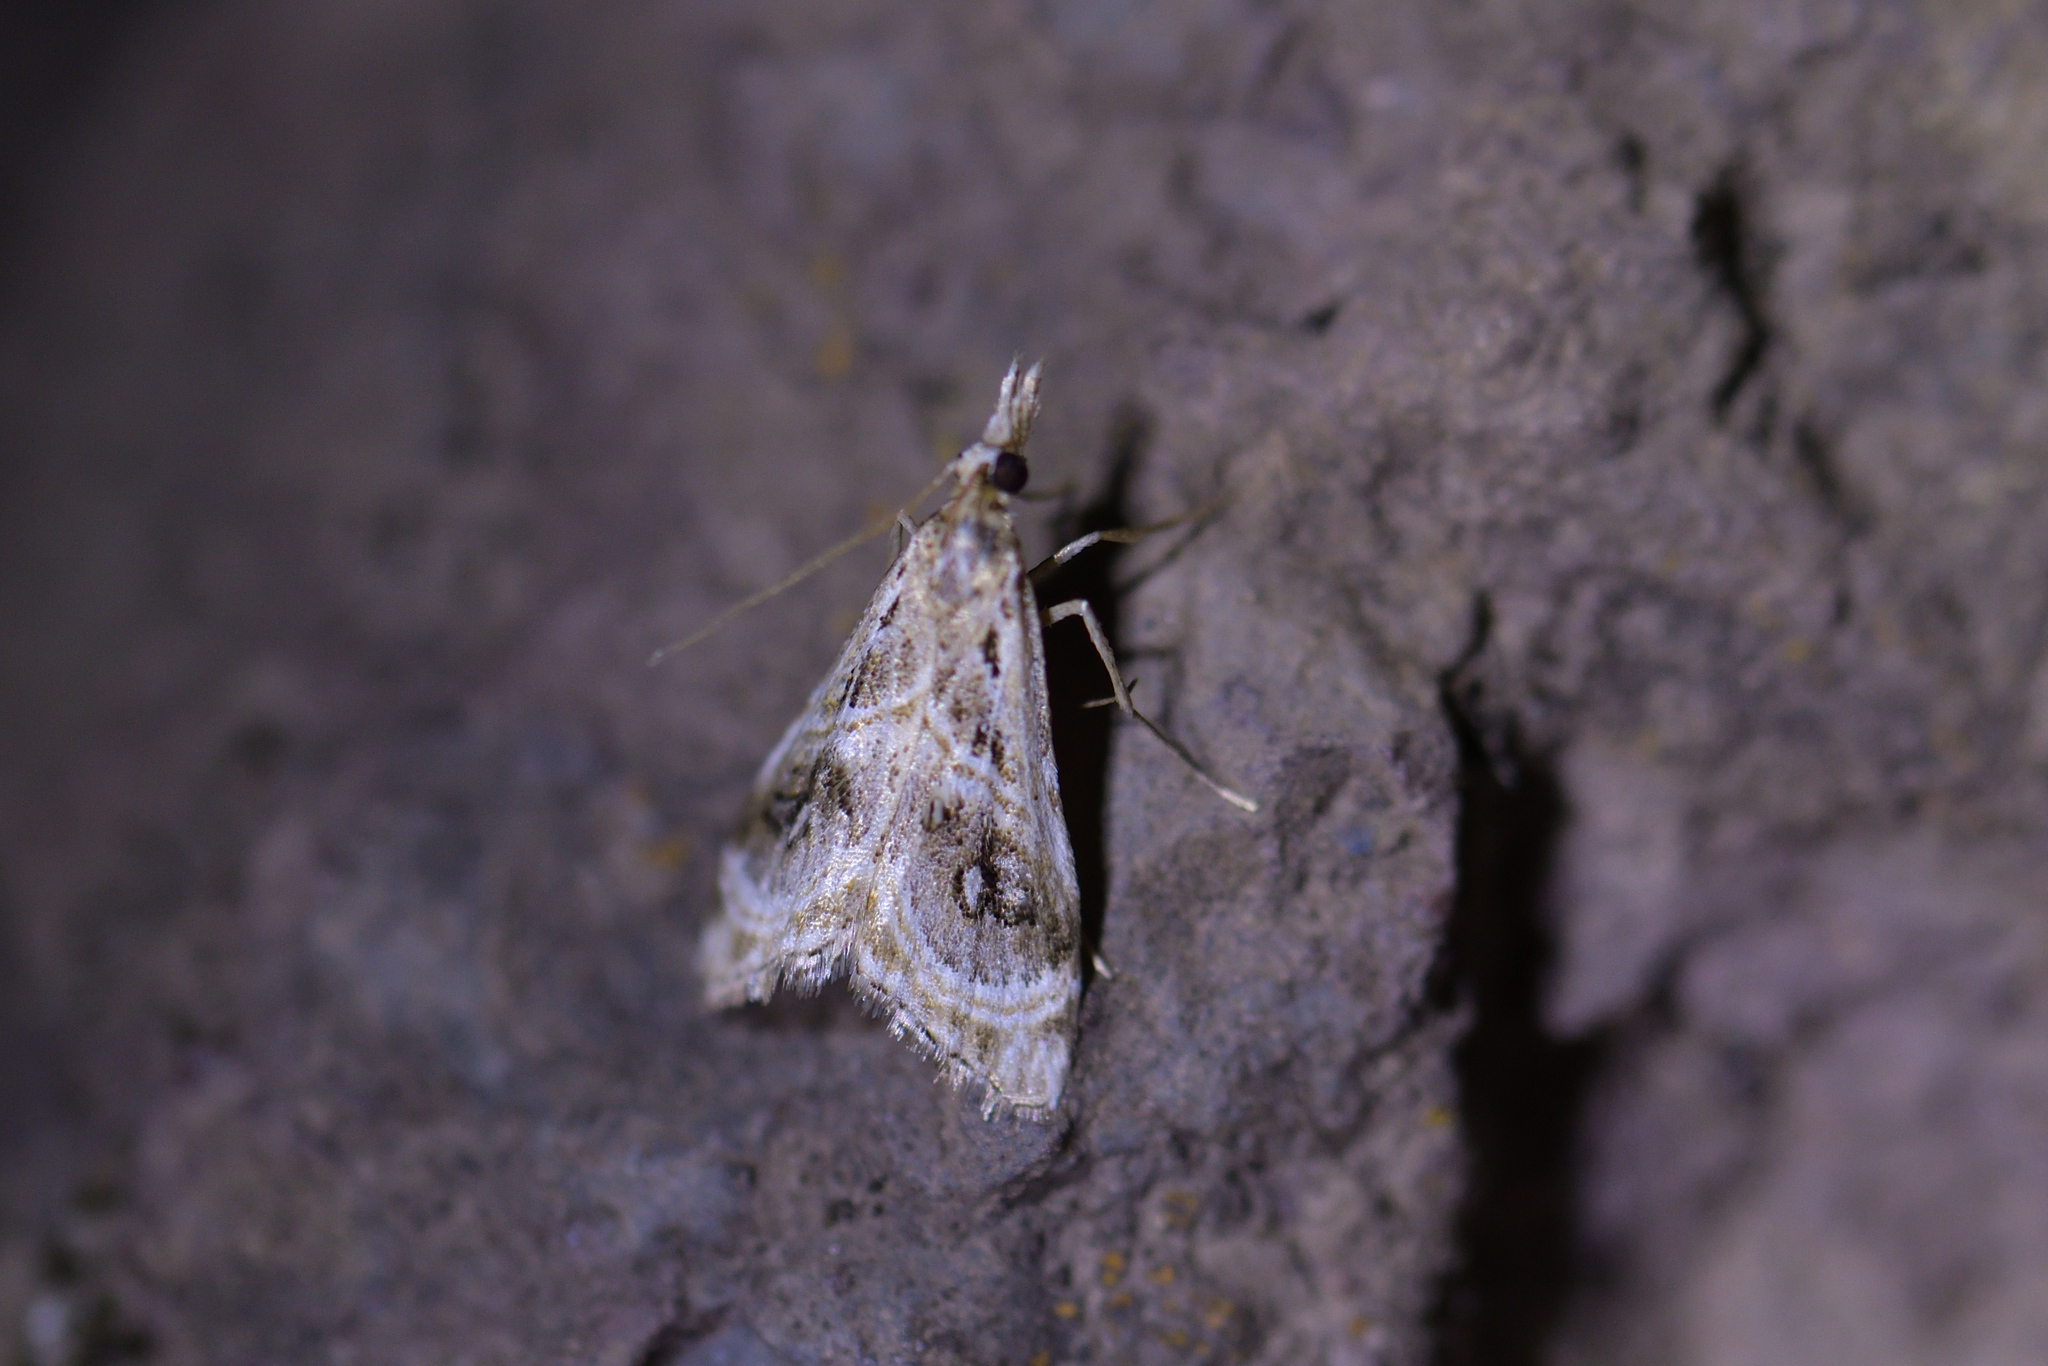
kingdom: Animalia
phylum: Arthropoda
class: Insecta
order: Lepidoptera
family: Crambidae
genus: Gadira
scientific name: Gadira acerella
